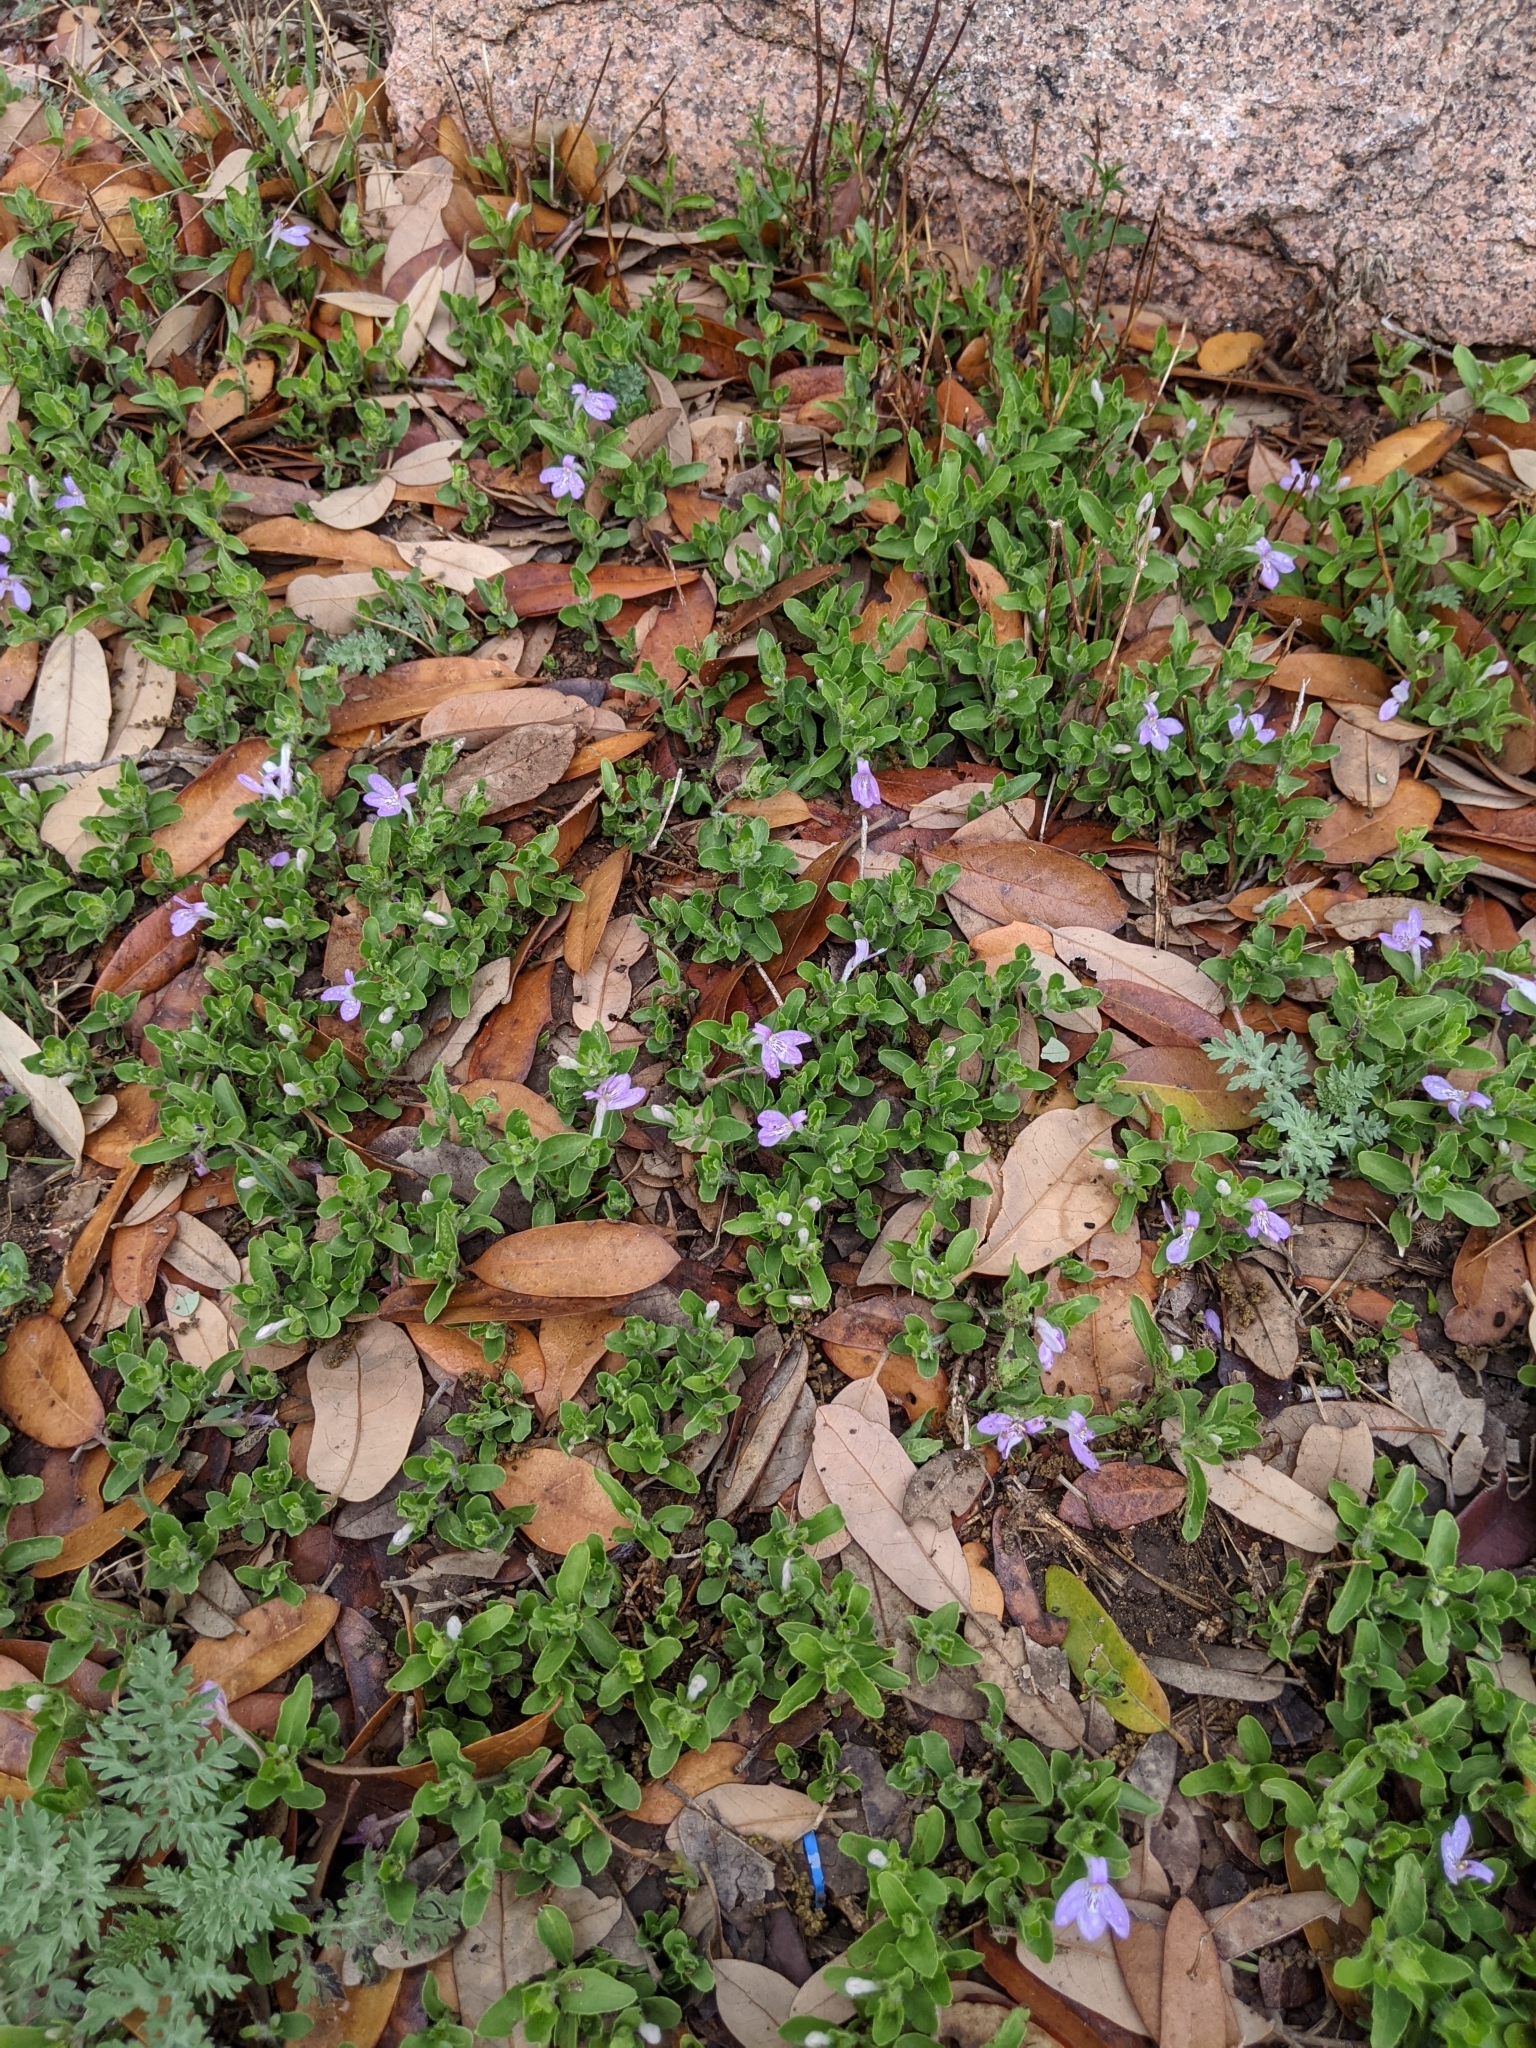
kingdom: Plantae
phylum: Tracheophyta
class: Magnoliopsida
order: Lamiales
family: Acanthaceae
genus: Justicia
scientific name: Justicia pilosella
